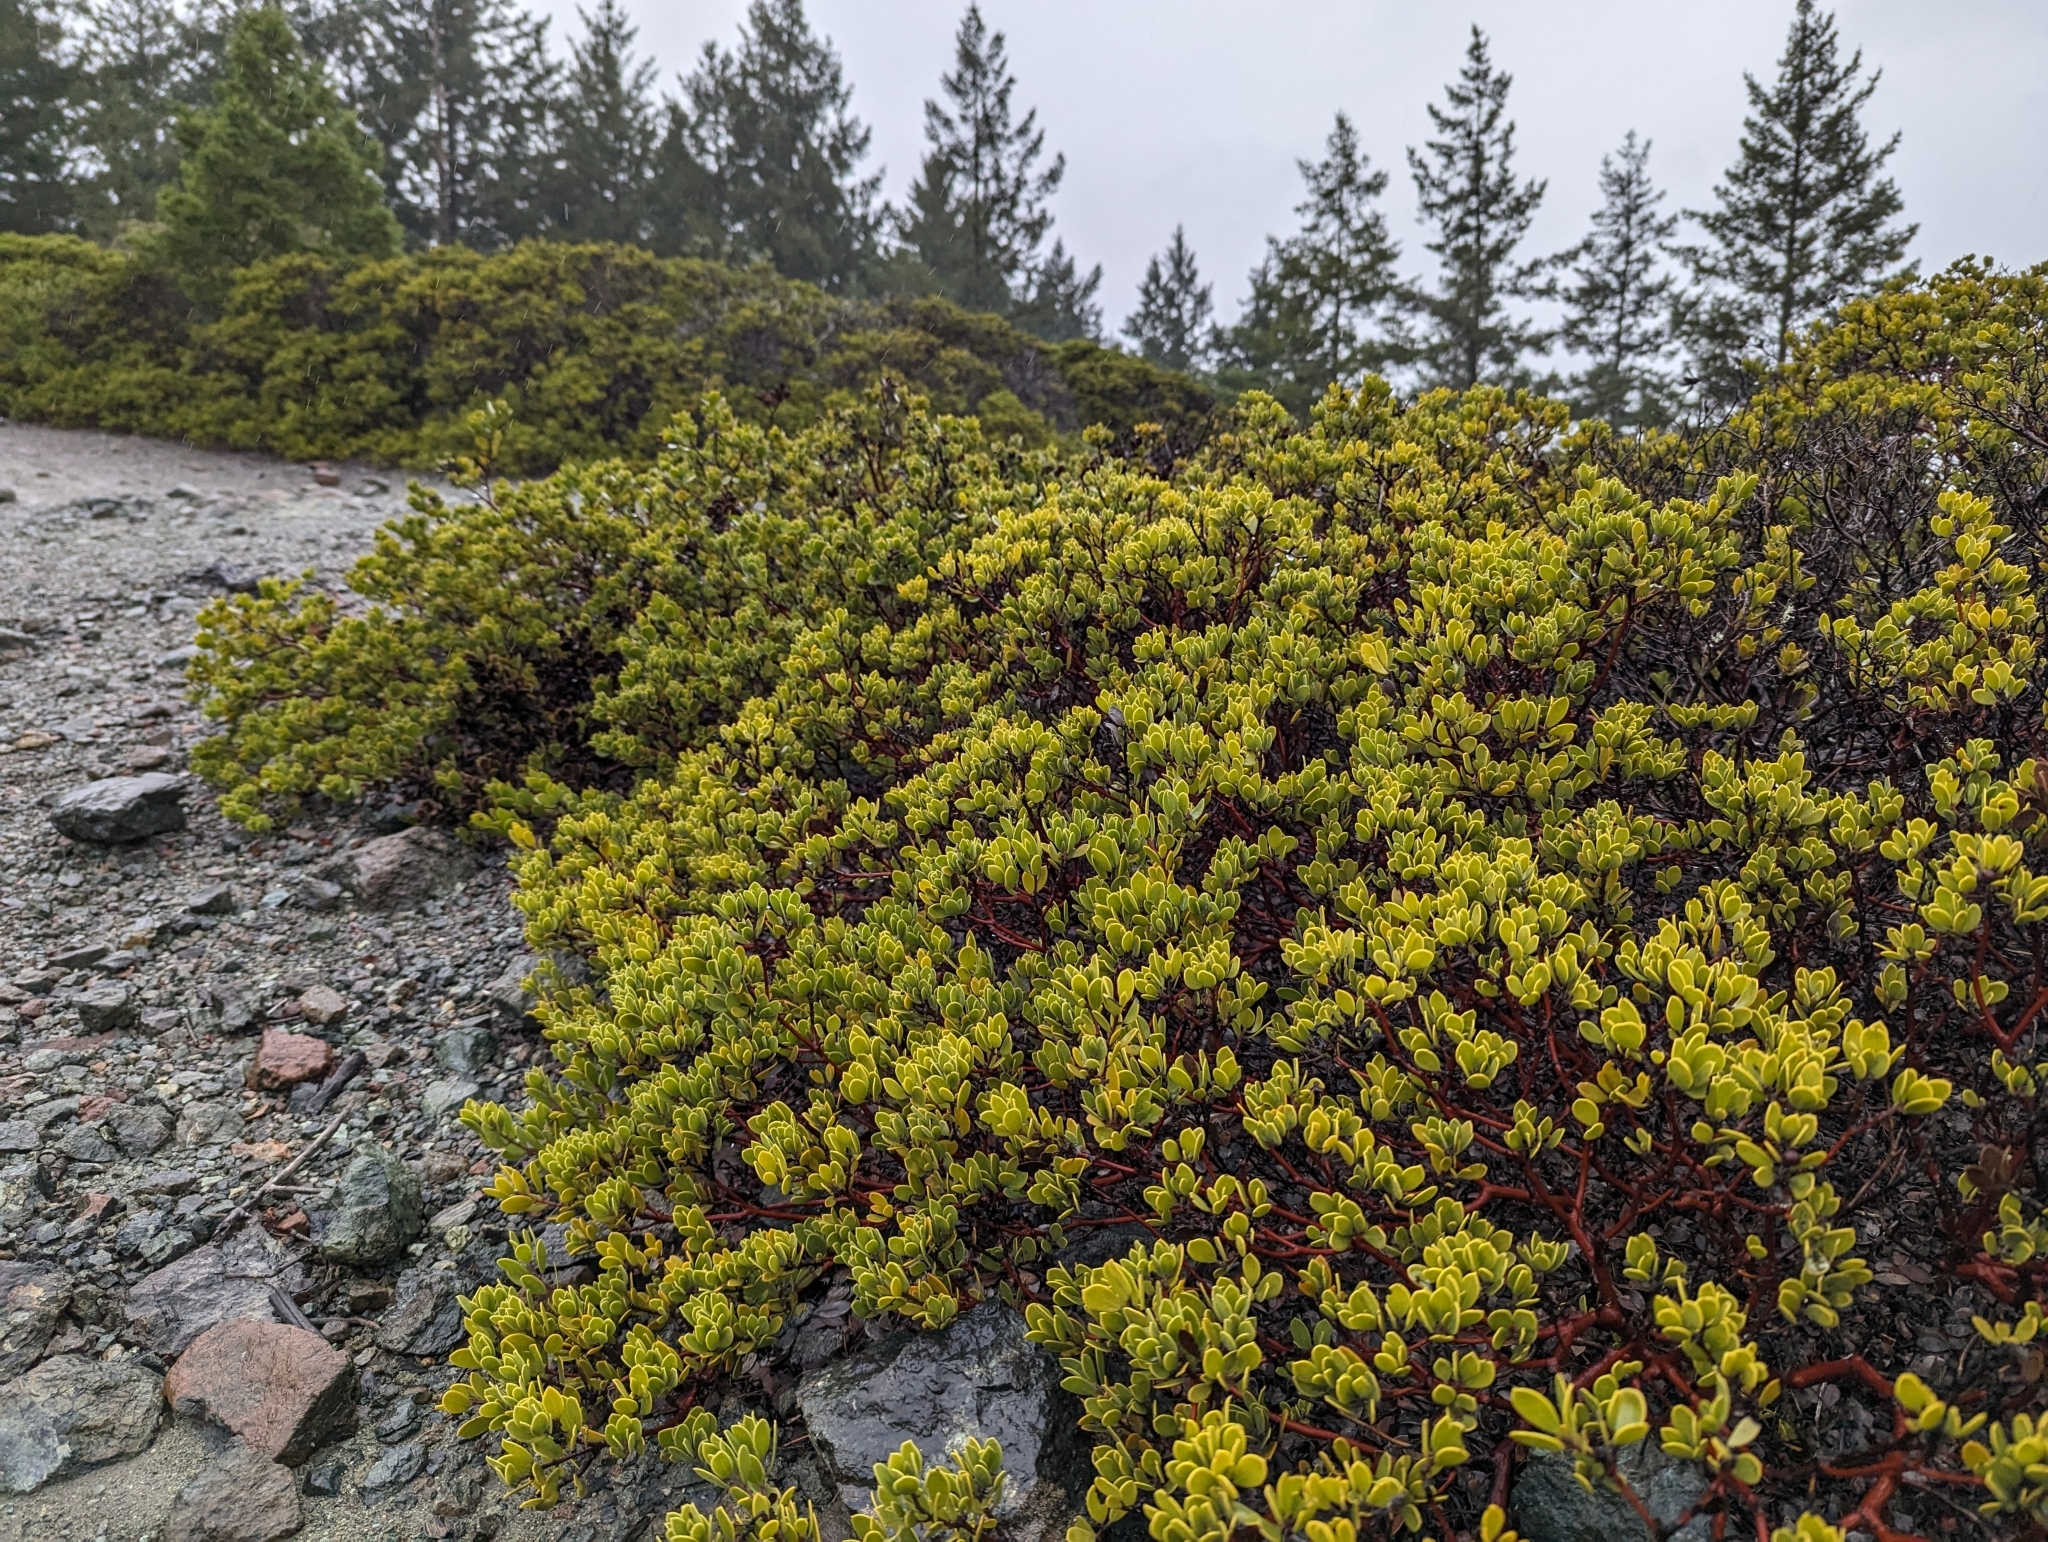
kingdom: Plantae
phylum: Tracheophyta
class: Magnoliopsida
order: Ericales
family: Ericaceae
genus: Arctostaphylos
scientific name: Arctostaphylos montana
